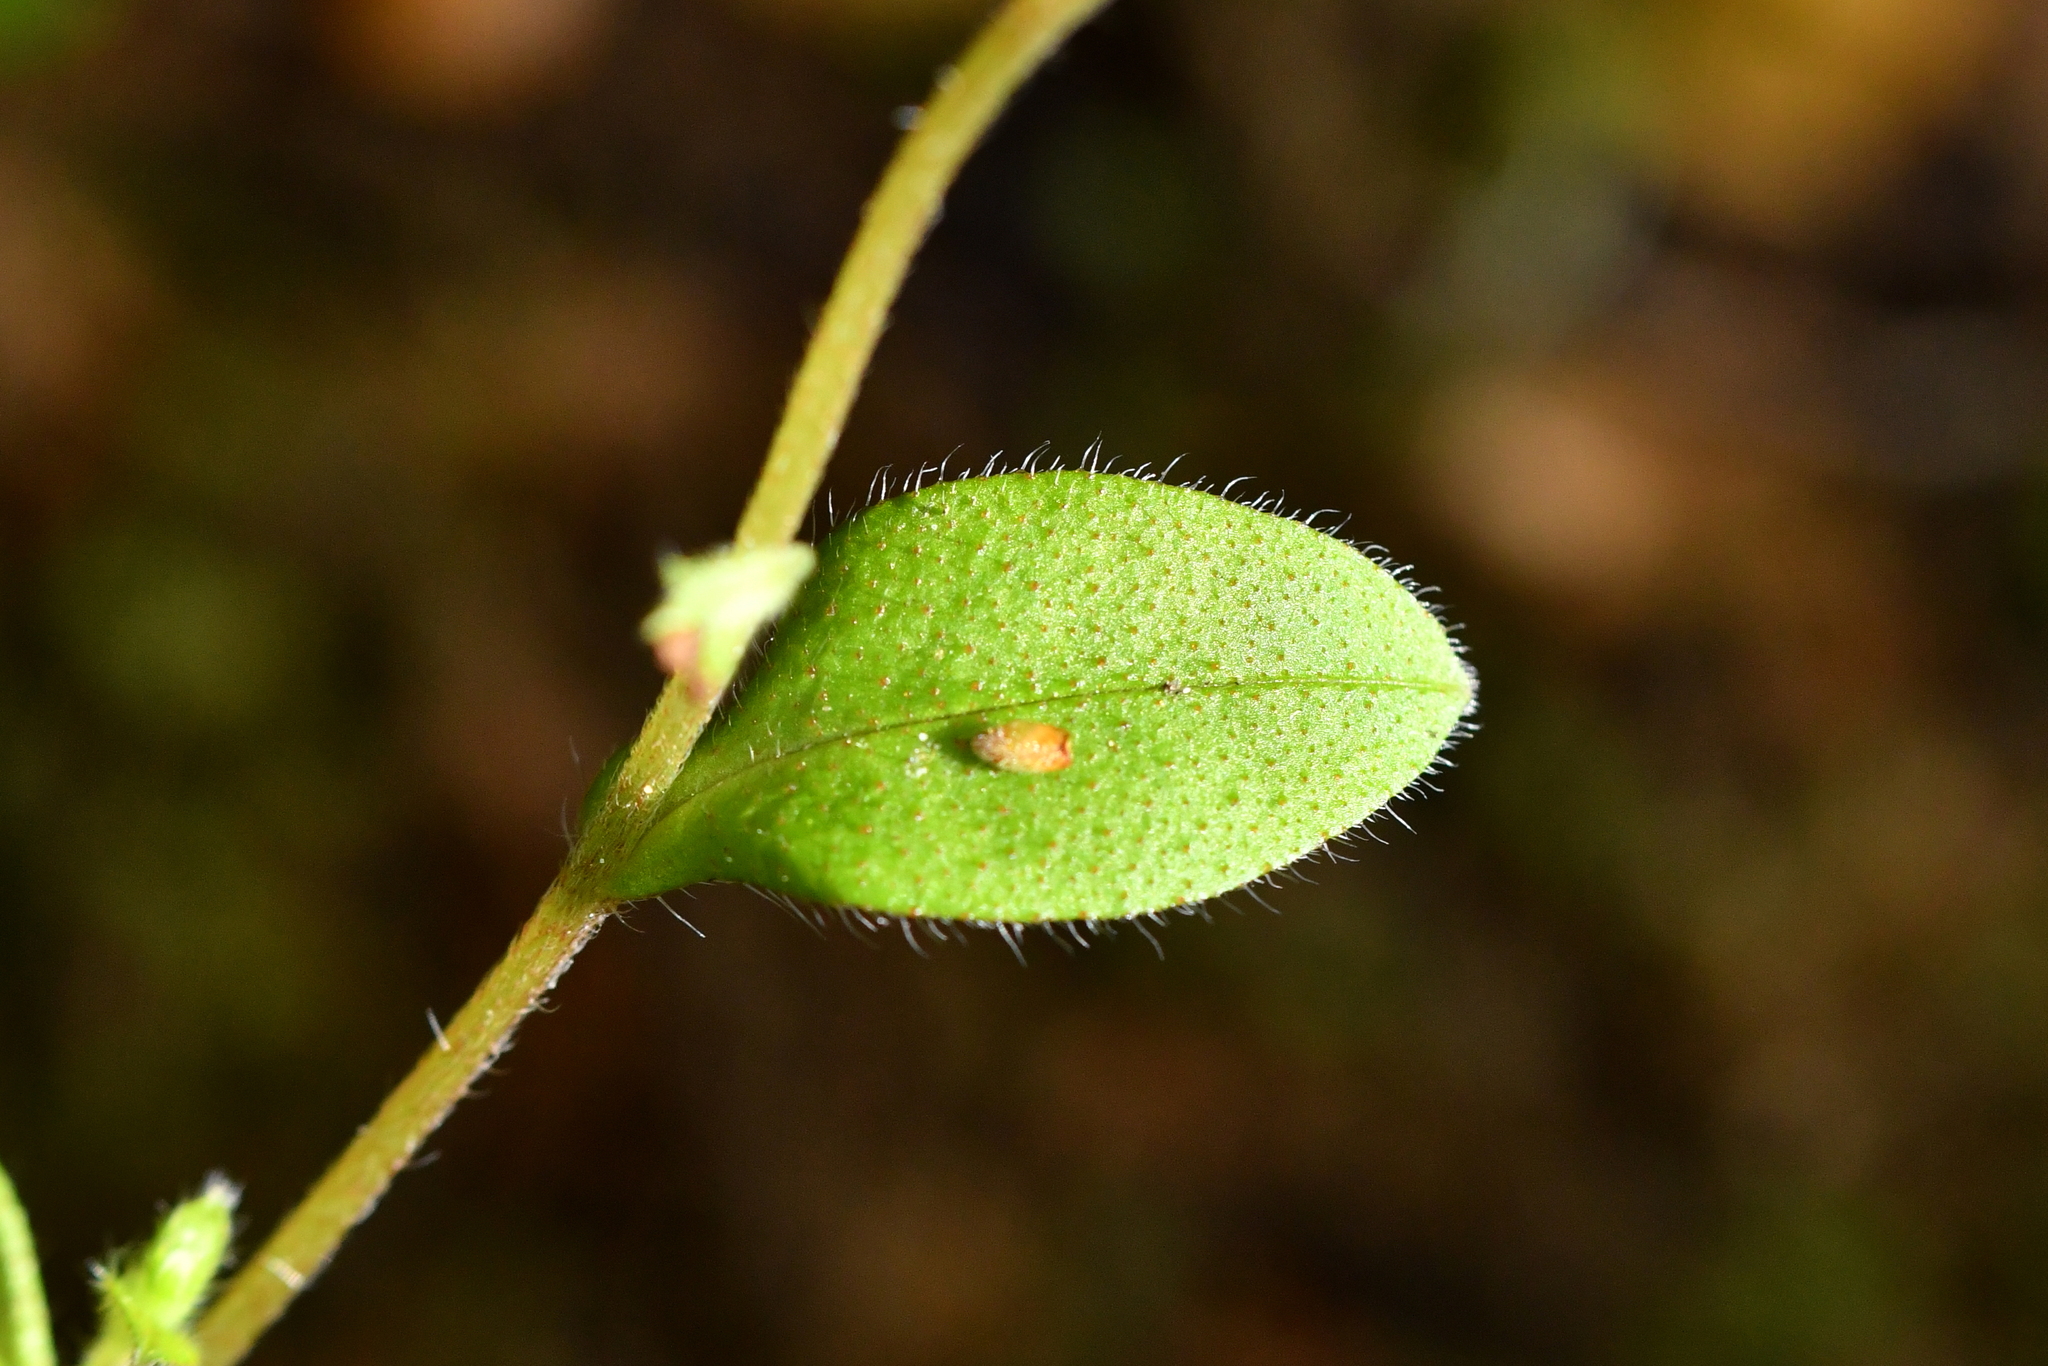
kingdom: Plantae
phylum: Tracheophyta
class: Magnoliopsida
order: Boraginales
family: Boraginaceae
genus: Myosotis
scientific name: Myosotis forsteri
